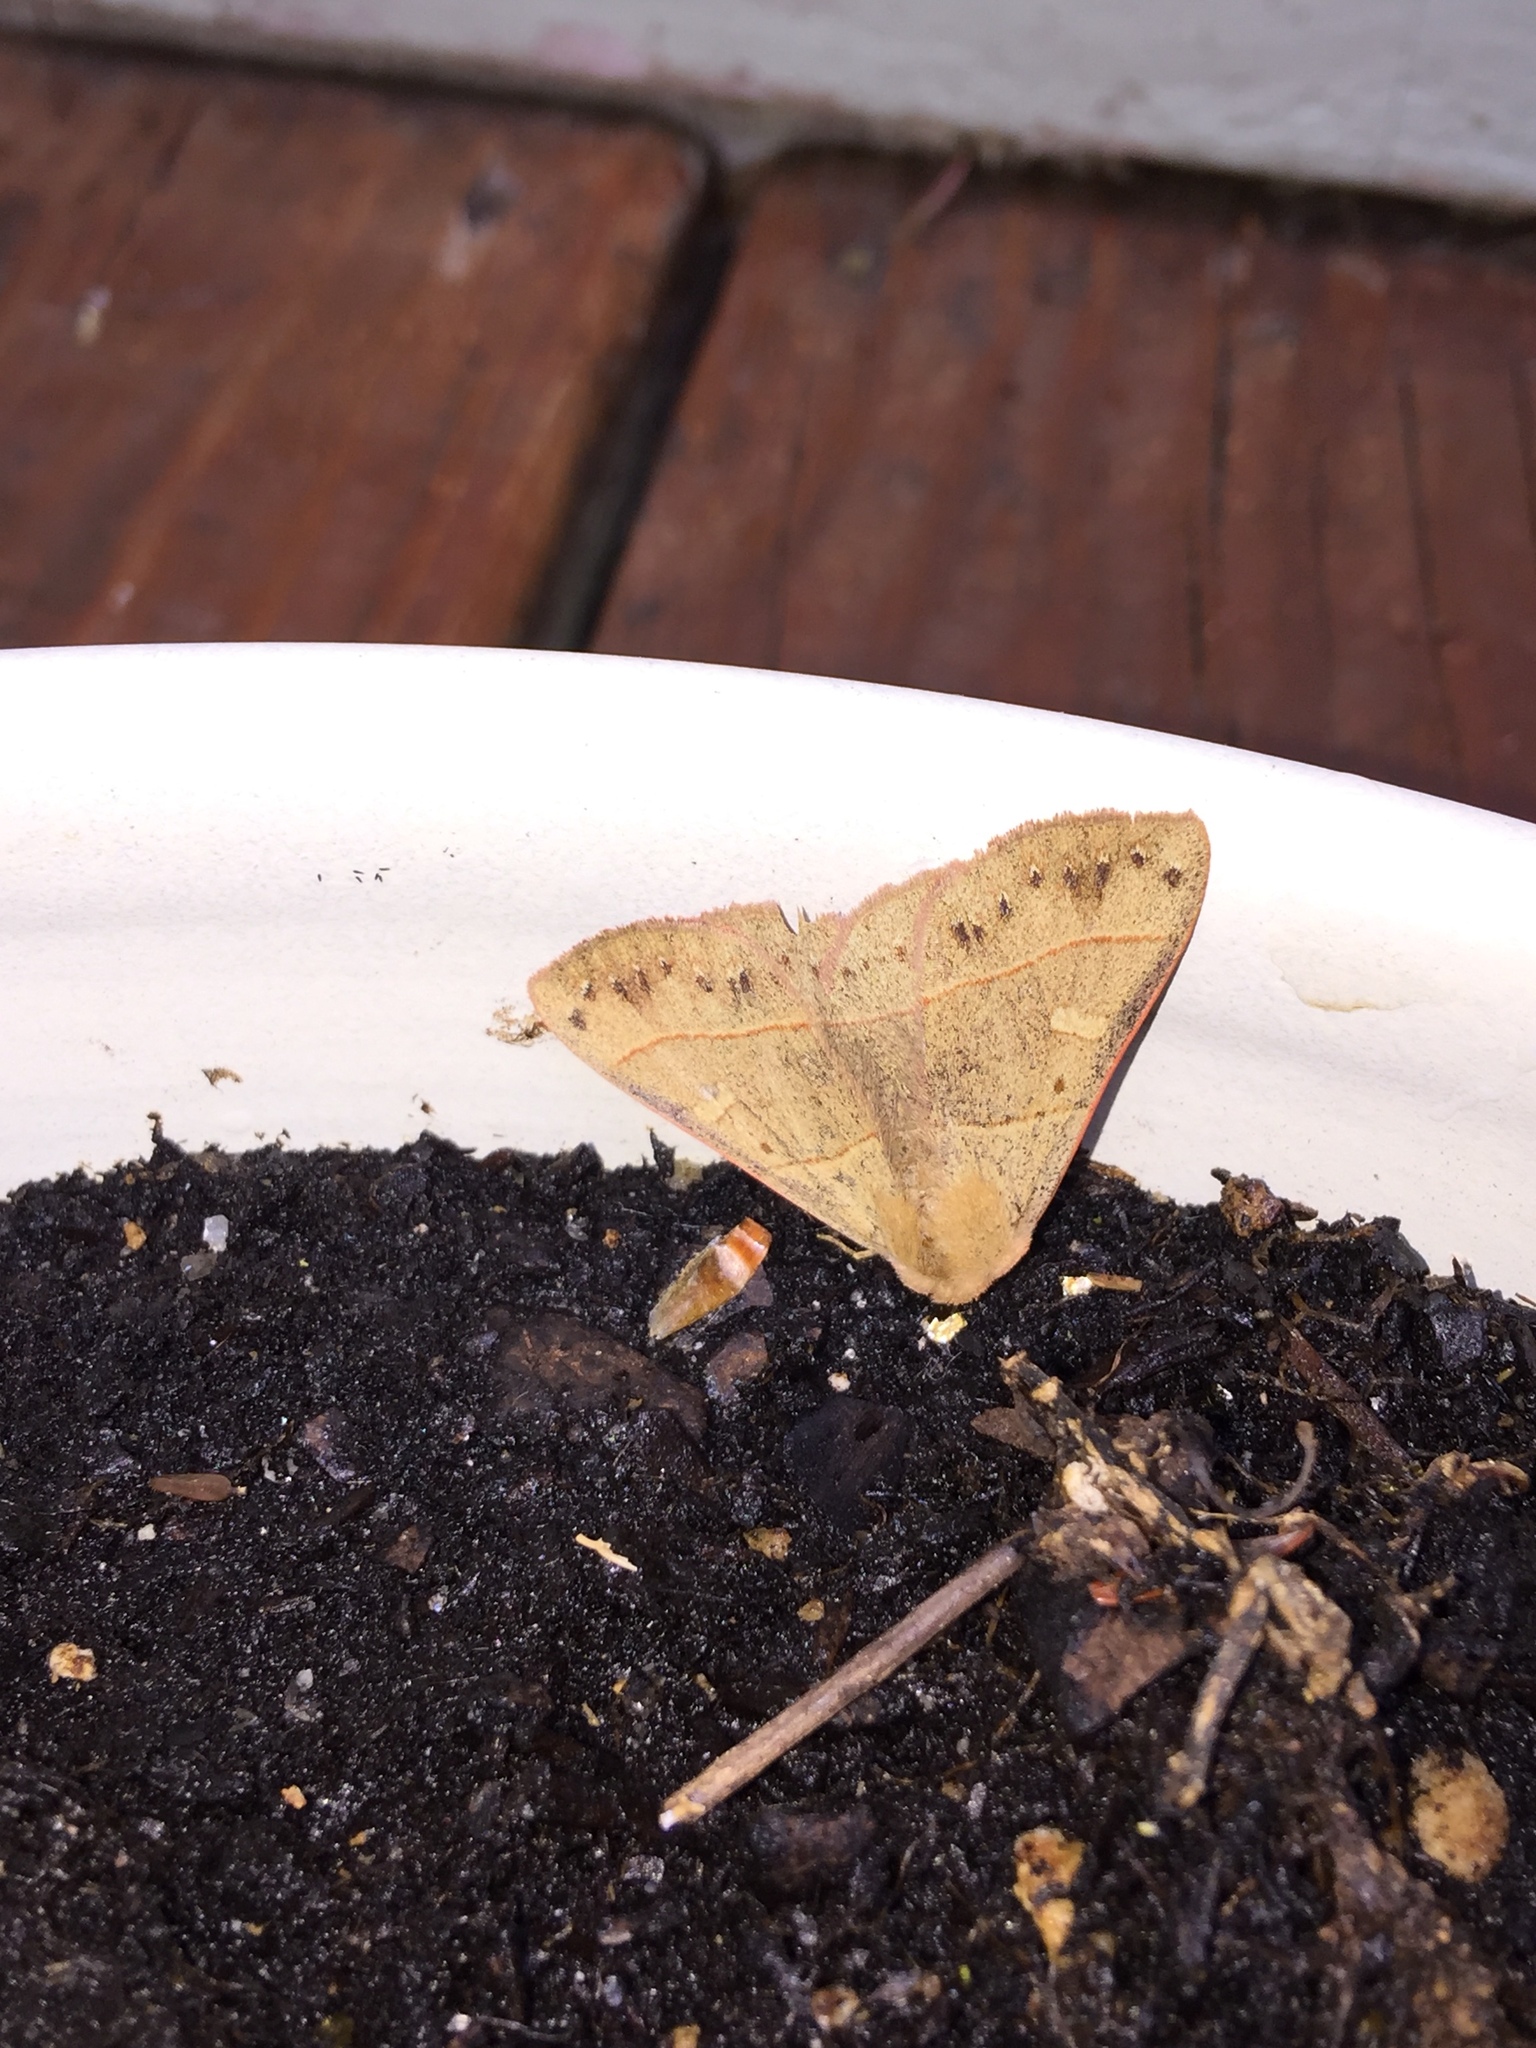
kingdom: Animalia
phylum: Arthropoda
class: Insecta
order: Lepidoptera
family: Erebidae
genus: Panopoda
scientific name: Panopoda rufimargo
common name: Red-lined panopoda moth
